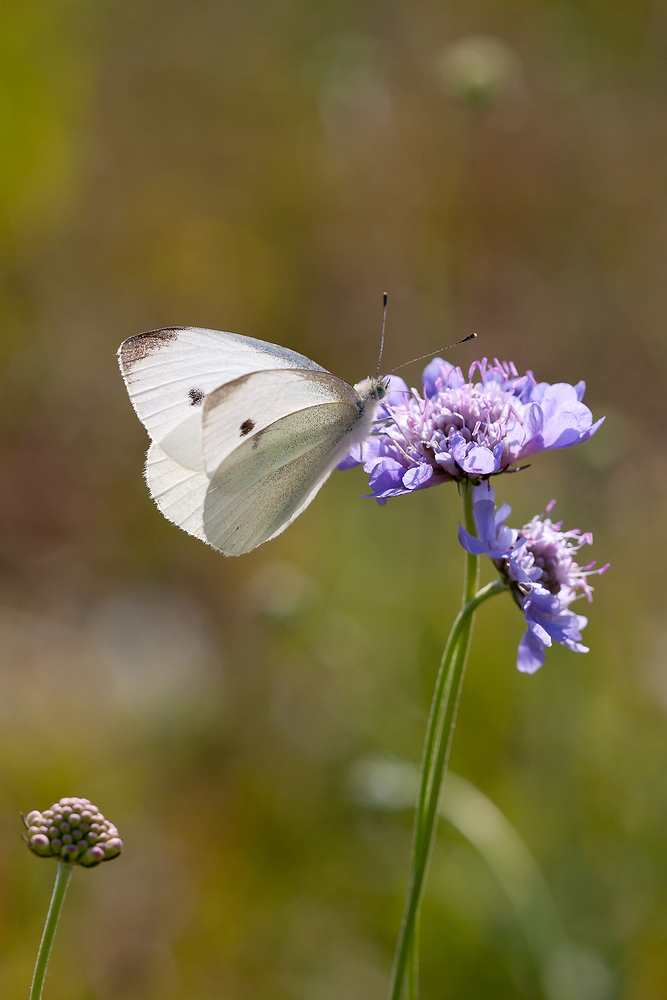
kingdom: Animalia
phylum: Arthropoda
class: Insecta
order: Lepidoptera
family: Pieridae
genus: Pieris
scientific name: Pieris rapae
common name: Small white
